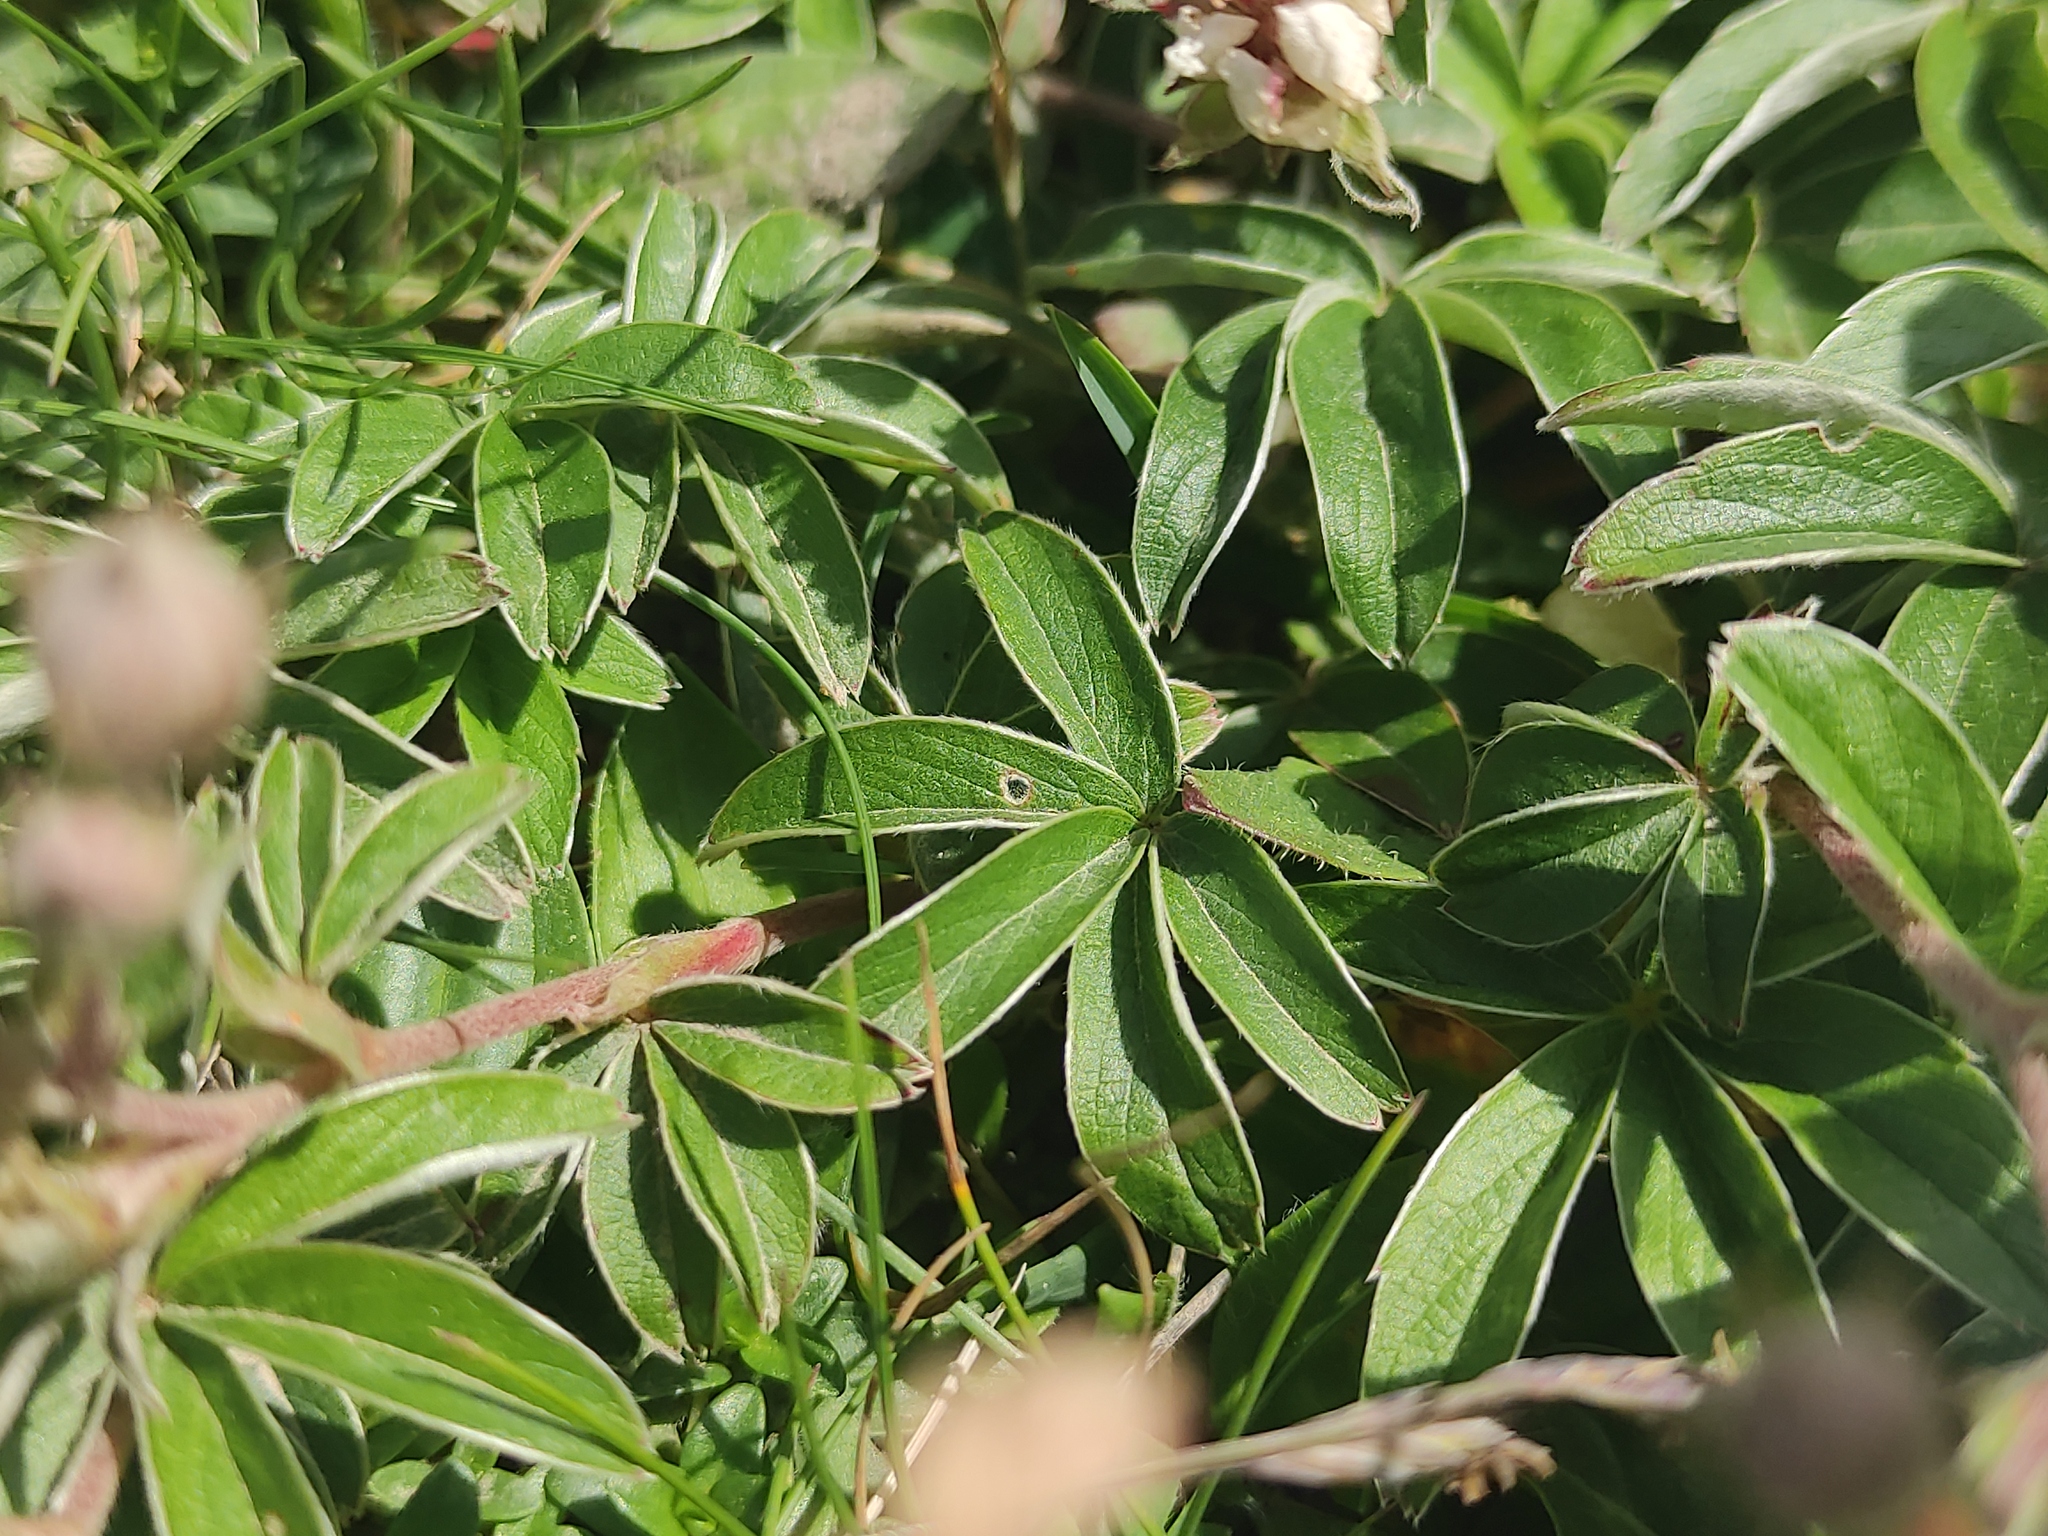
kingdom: Plantae
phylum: Tracheophyta
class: Magnoliopsida
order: Rosales
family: Rosaceae
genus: Potentilla
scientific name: Potentilla alchimilloides
